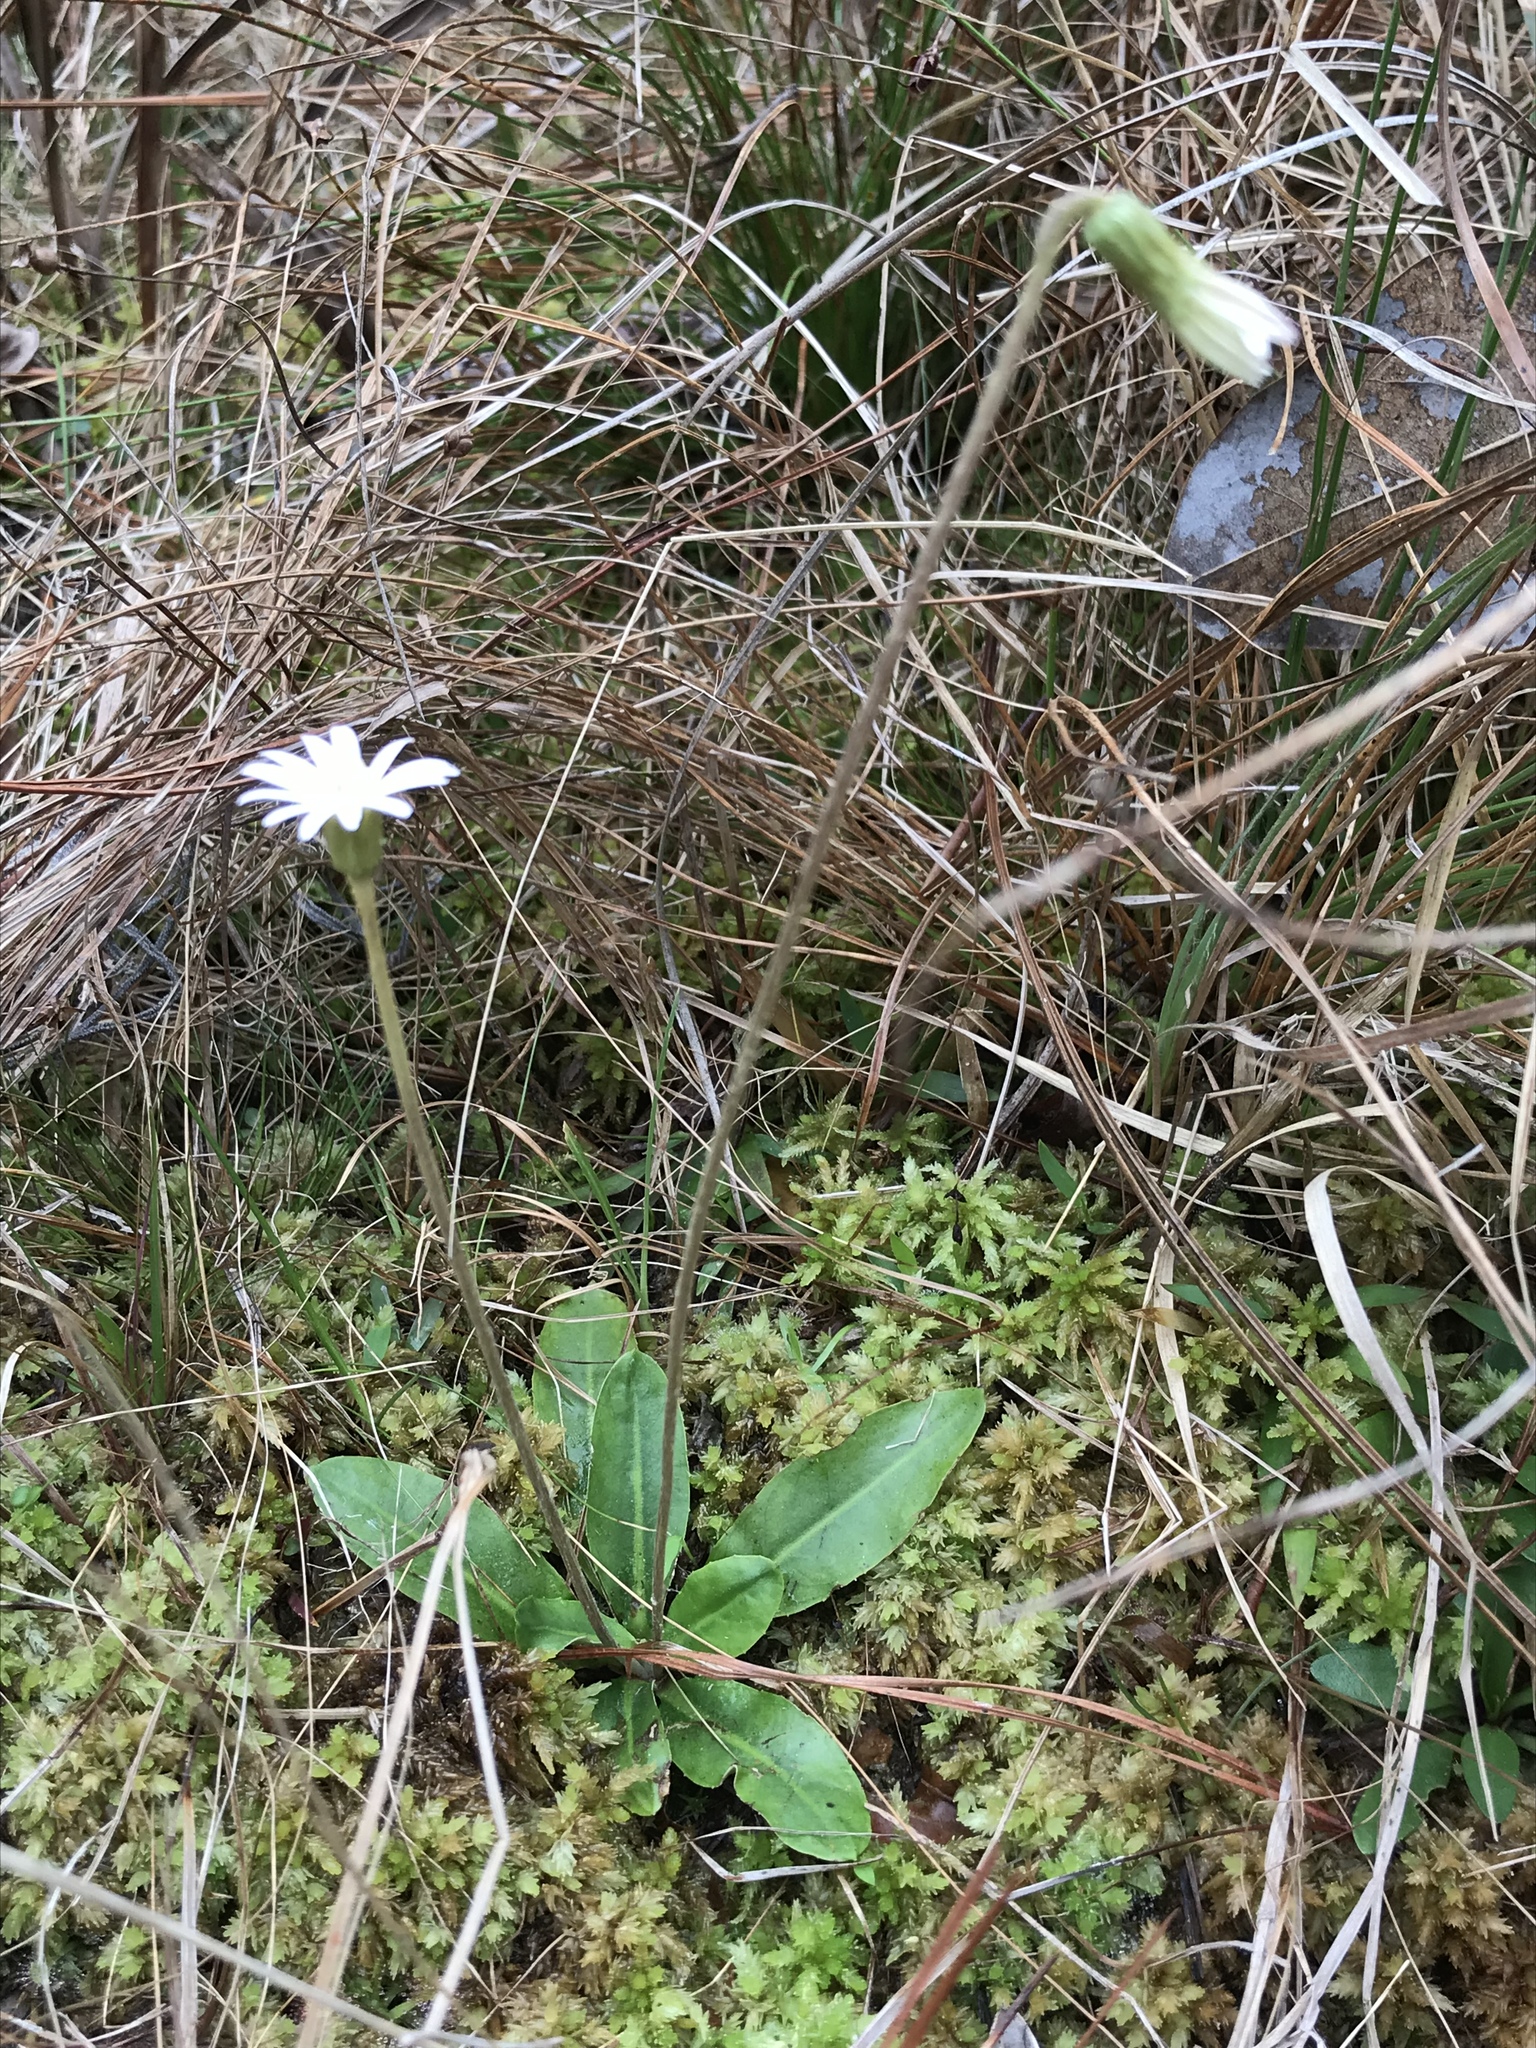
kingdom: Plantae
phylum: Tracheophyta
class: Magnoliopsida
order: Asterales
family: Asteraceae
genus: Chaptalia
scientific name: Chaptalia tomentosa
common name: Woolly sunbonnet
